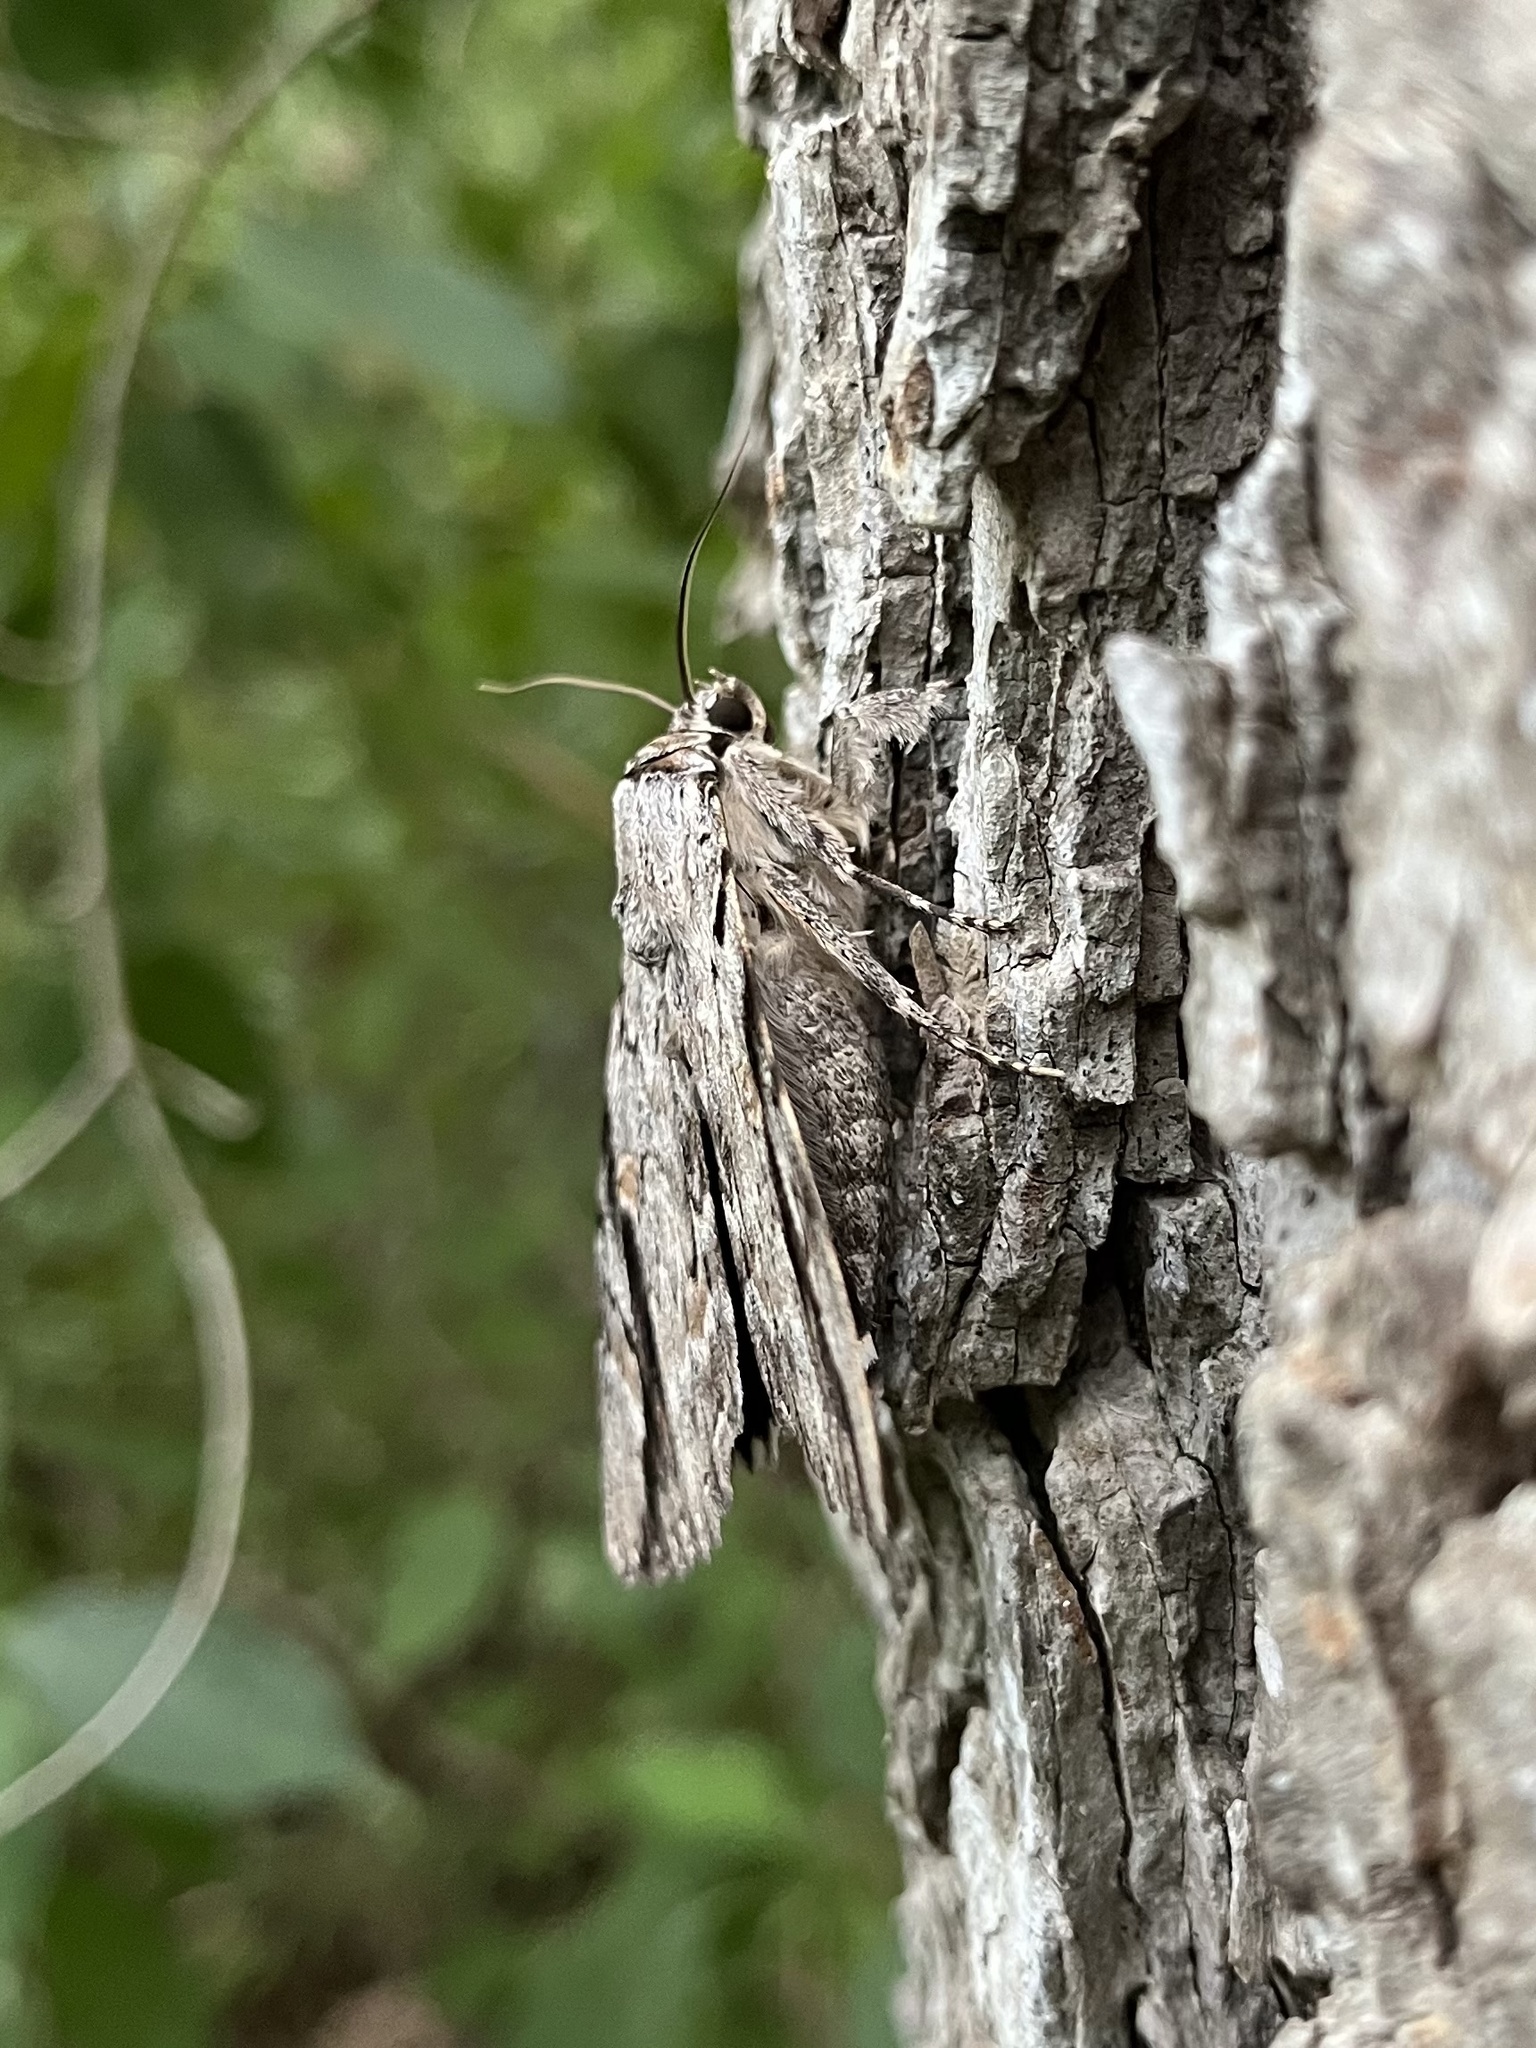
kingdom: Animalia
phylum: Arthropoda
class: Insecta
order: Lepidoptera
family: Erebidae
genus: Catocala
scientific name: Catocala maestosa
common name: Sad underwing
